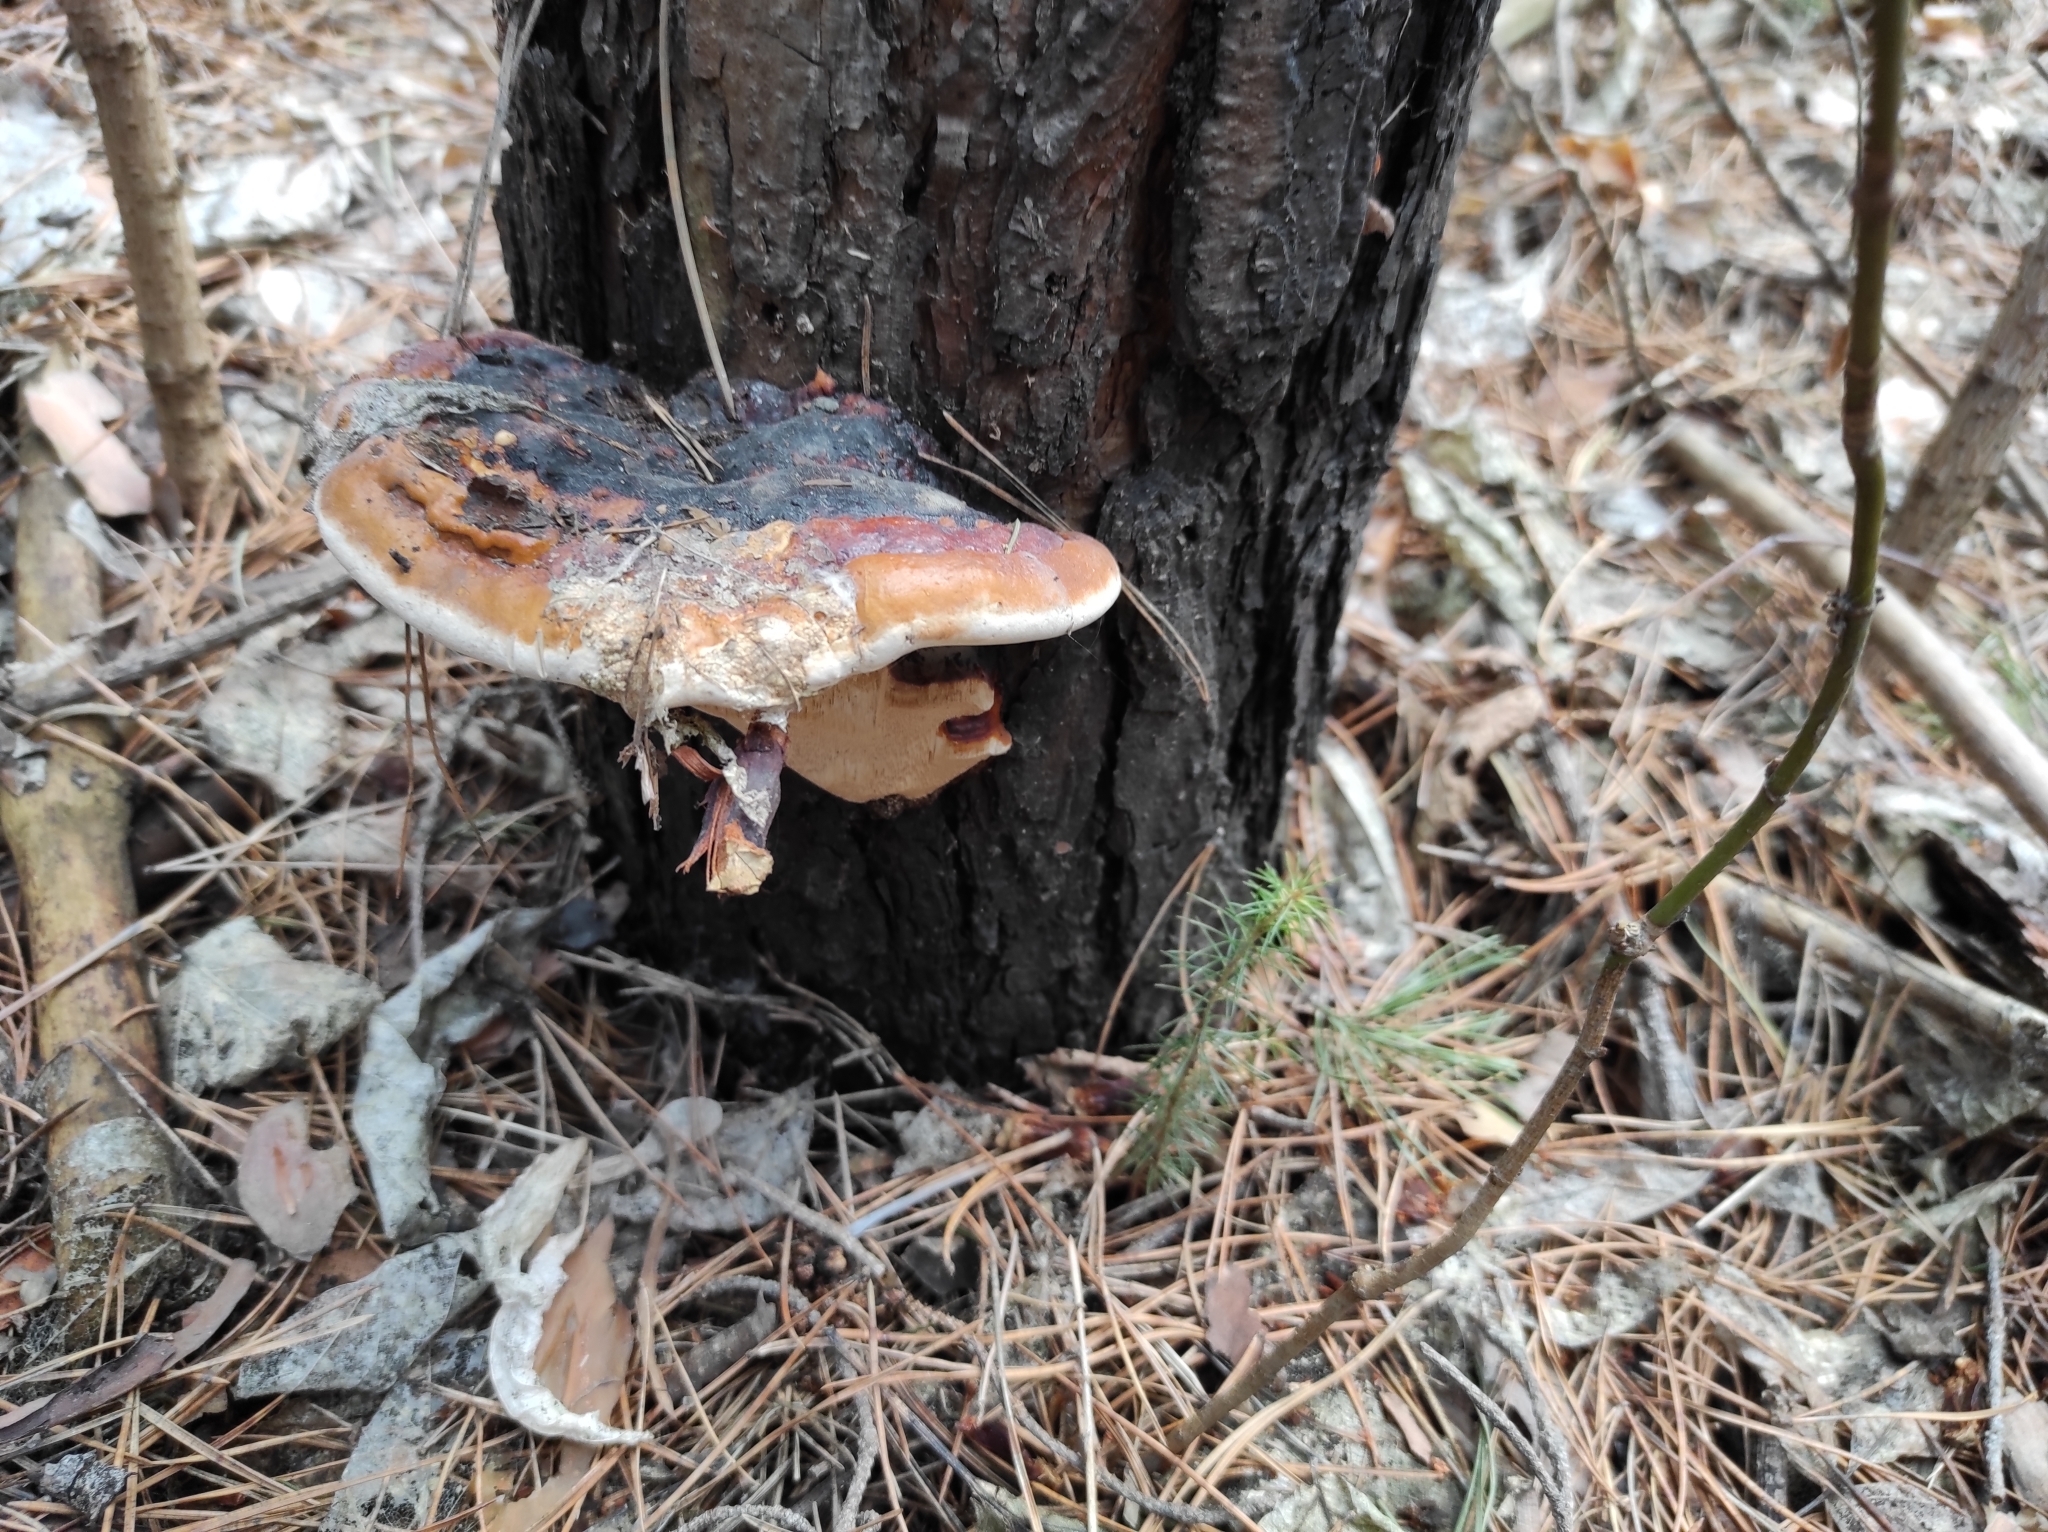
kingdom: Fungi
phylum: Basidiomycota
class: Agaricomycetes
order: Polyporales
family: Fomitopsidaceae
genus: Fomitopsis
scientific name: Fomitopsis pinicola
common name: Red-belted bracket
